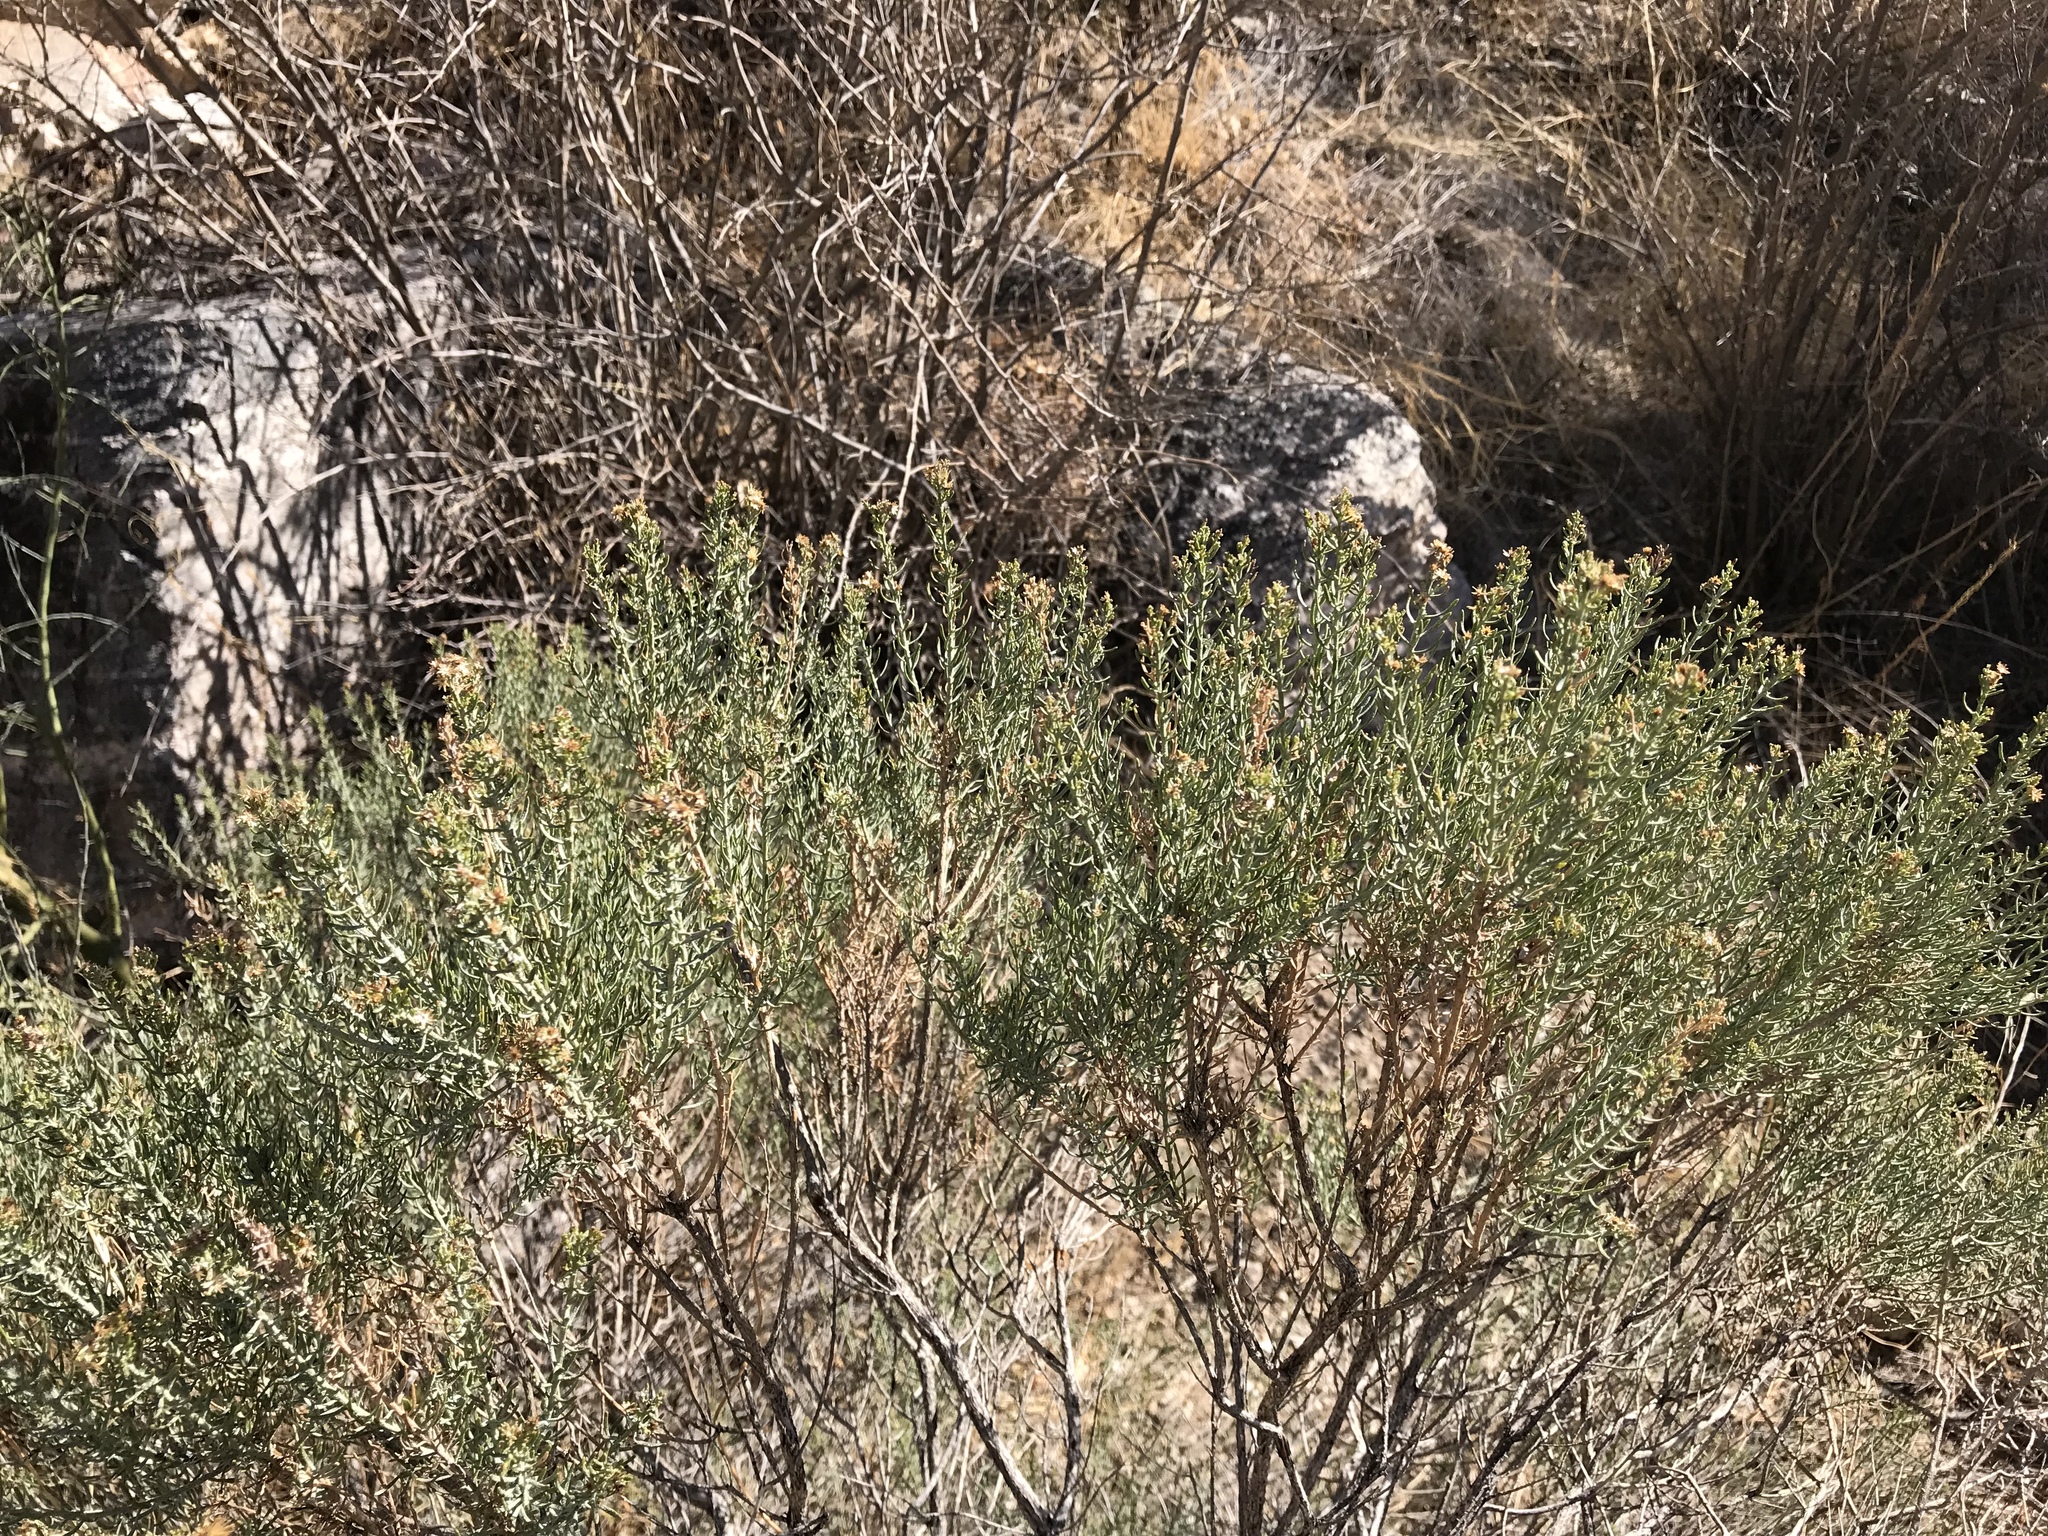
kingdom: Plantae
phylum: Tracheophyta
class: Magnoliopsida
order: Asterales
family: Asteraceae
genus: Ericameria
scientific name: Ericameria laricifolia
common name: Turpentine-bush
